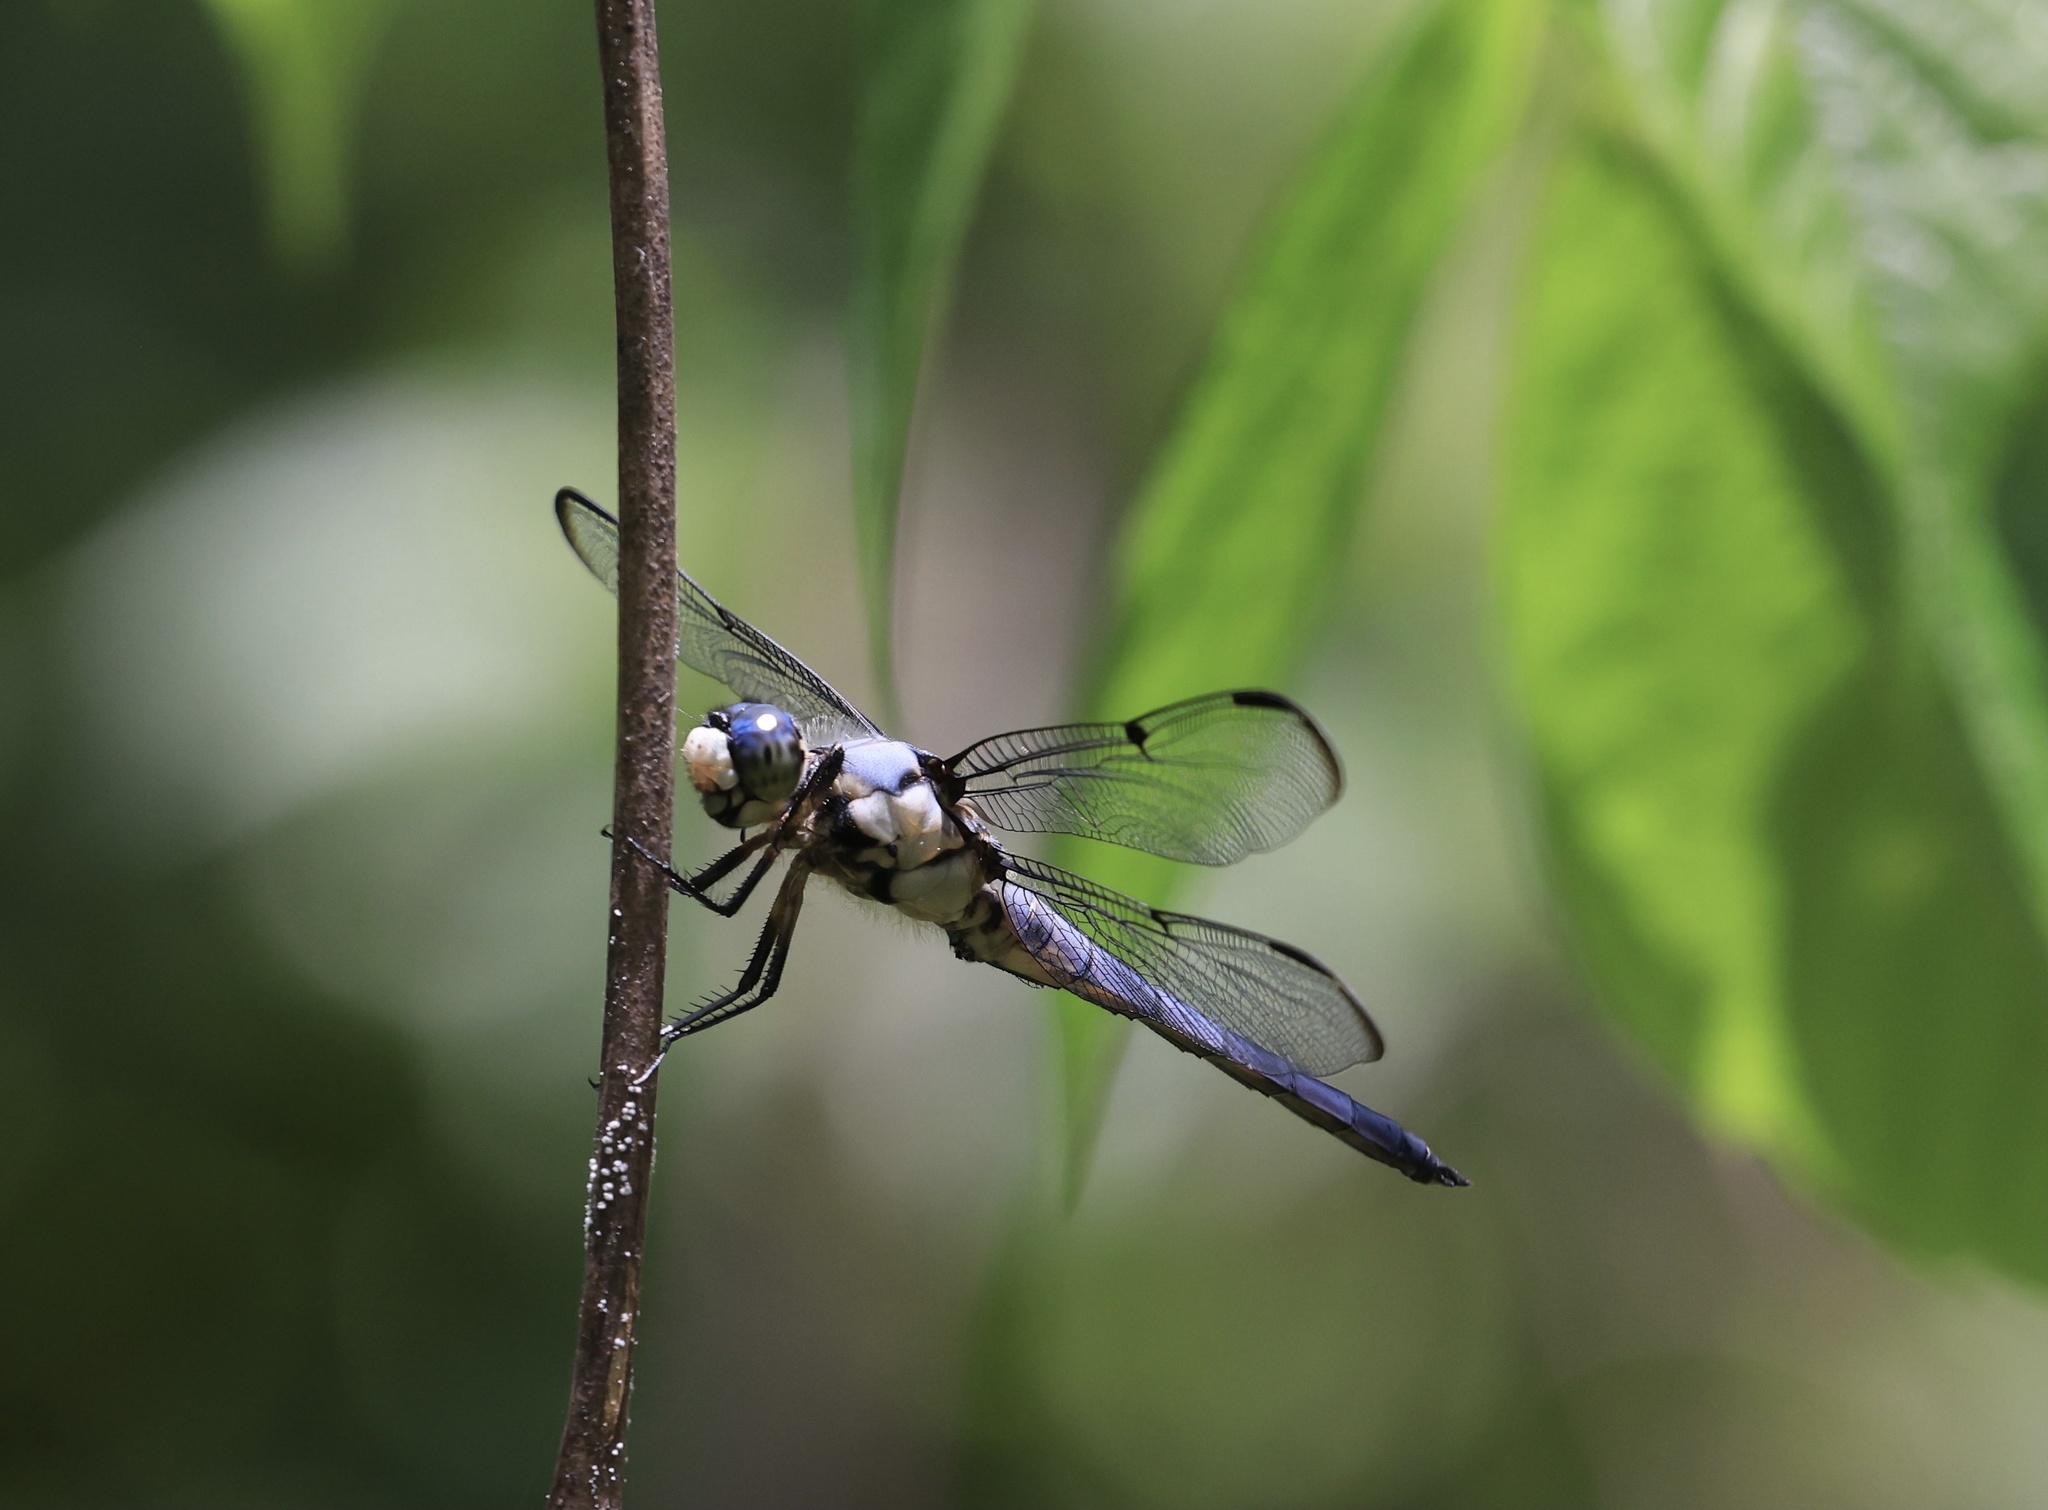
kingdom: Animalia
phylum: Arthropoda
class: Insecta
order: Odonata
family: Libellulidae
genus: Libellula
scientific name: Libellula vibrans
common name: Great blue skimmer
